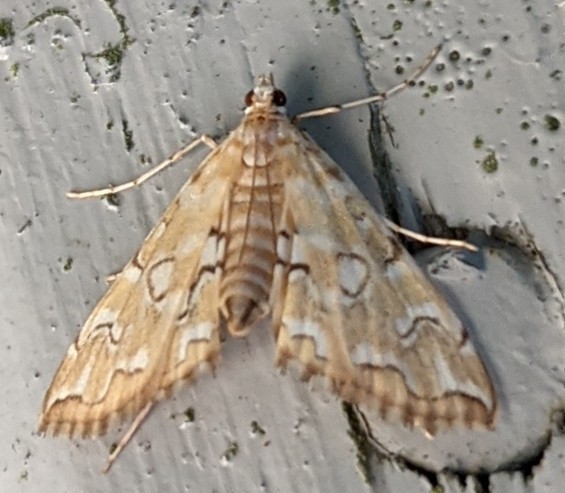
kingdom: Animalia
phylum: Arthropoda
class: Insecta
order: Lepidoptera
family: Crambidae
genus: Elophila
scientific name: Elophila icciusalis
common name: Pondside pyralid moth
